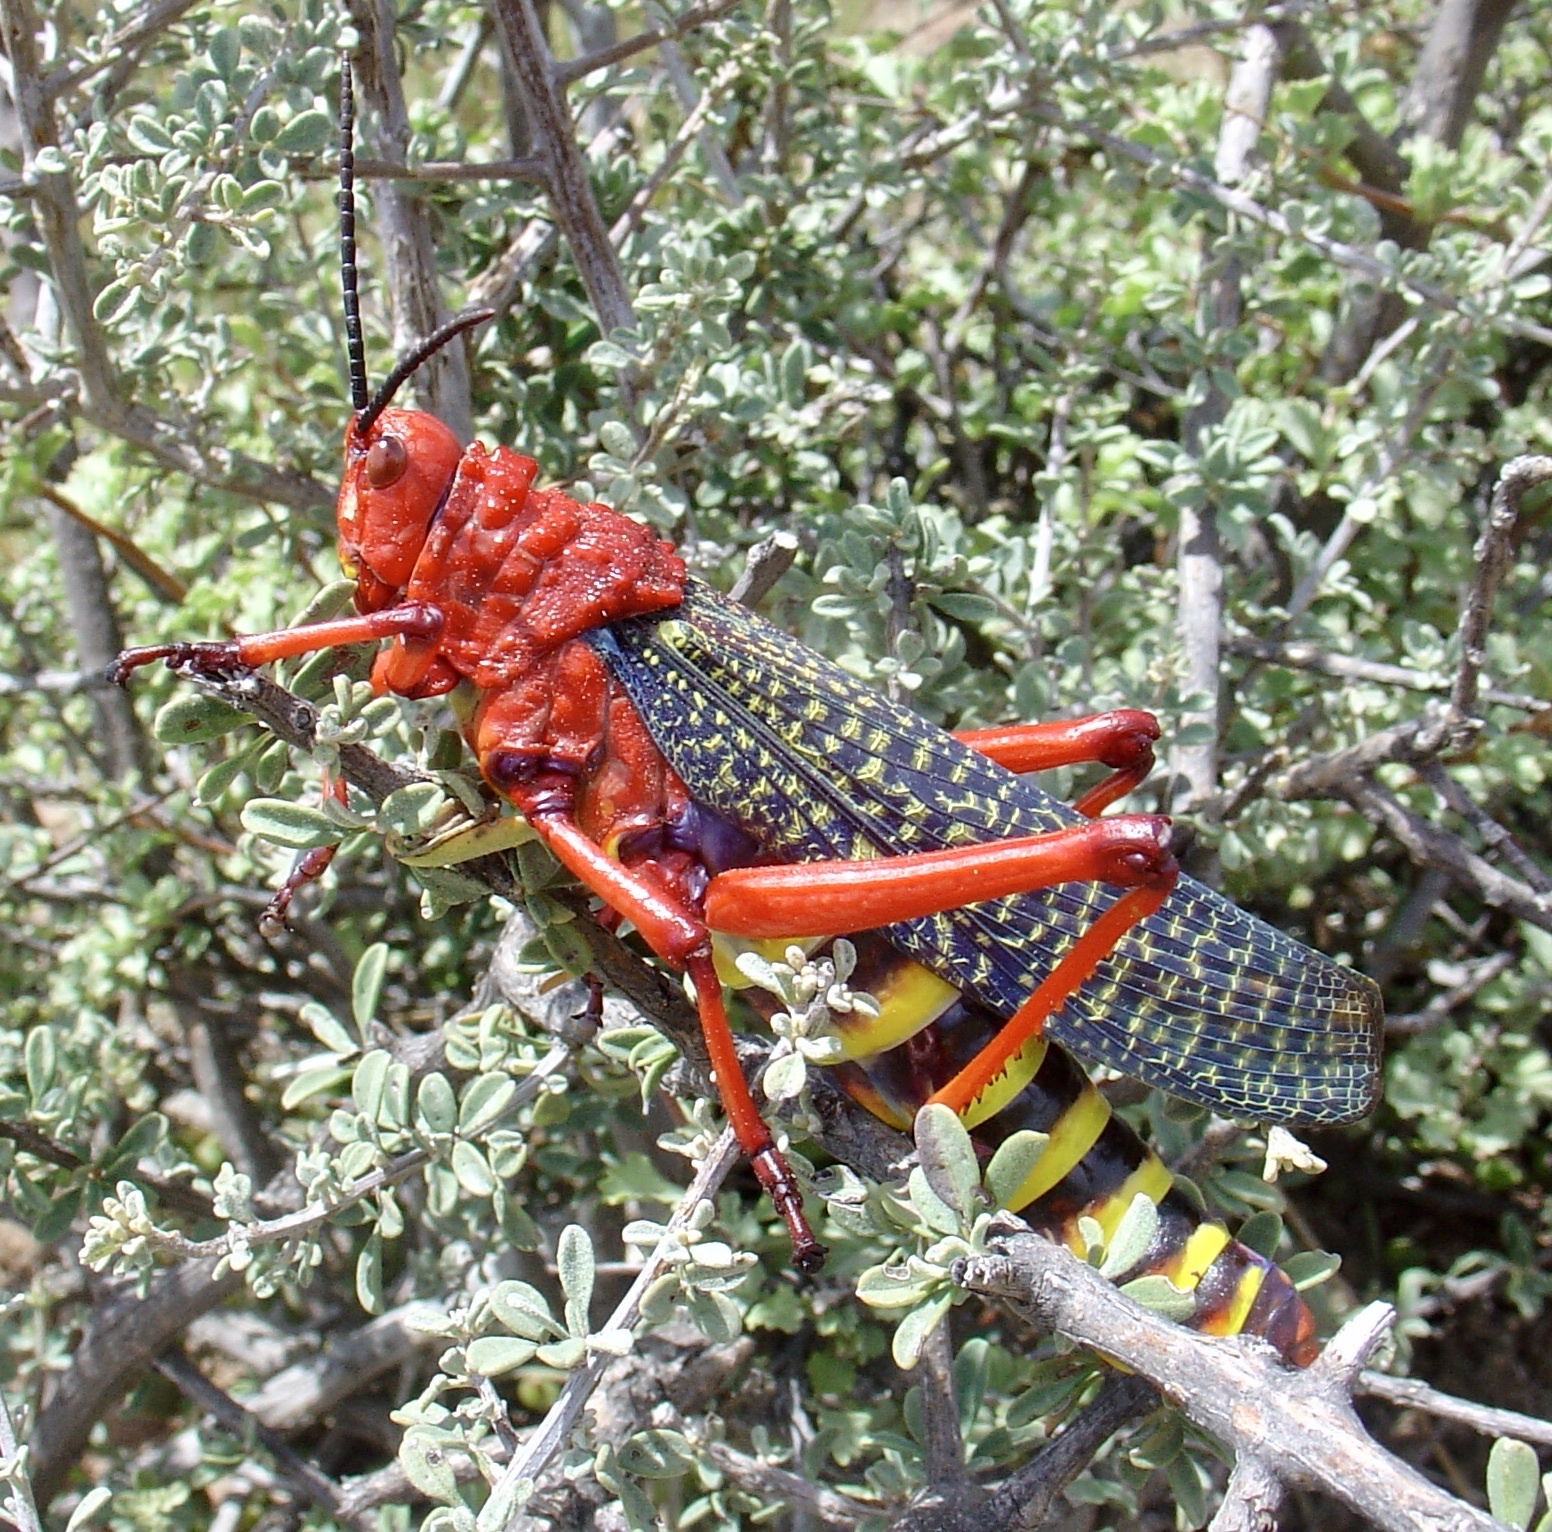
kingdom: Animalia
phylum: Arthropoda
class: Insecta
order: Orthoptera
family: Pyrgomorphidae
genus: Phymateus
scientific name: Phymateus morbillosus
